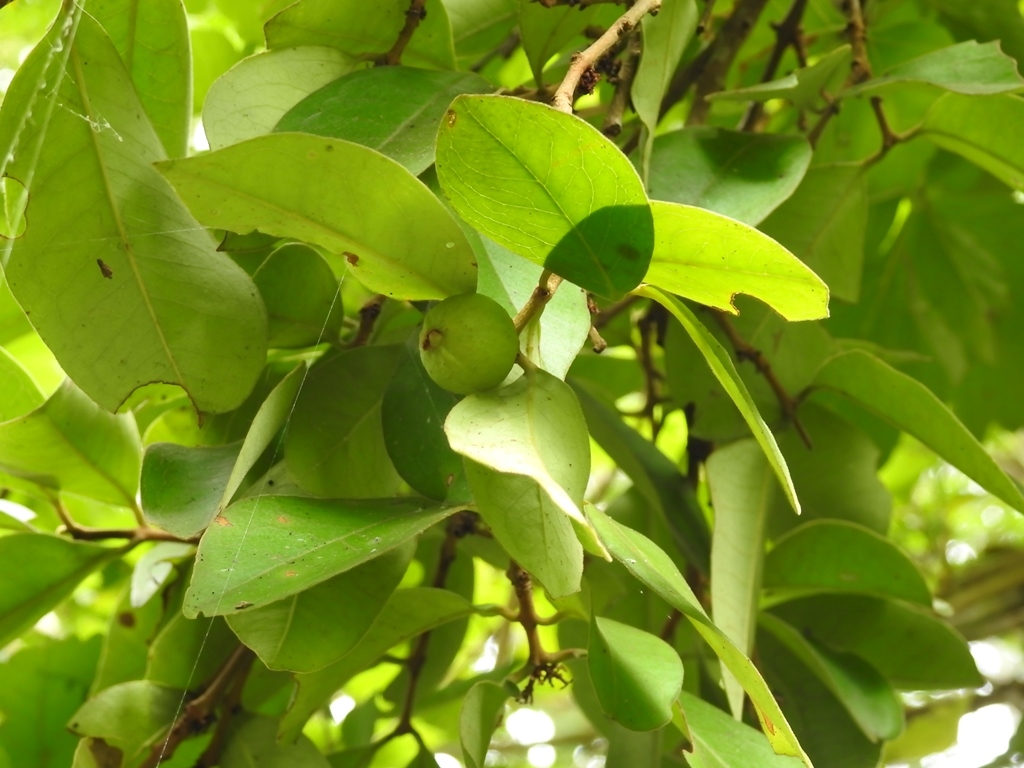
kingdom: Plantae
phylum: Tracheophyta
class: Magnoliopsida
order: Myrtales
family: Myrtaceae
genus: Eugenia
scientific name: Eugenia breedlovei
